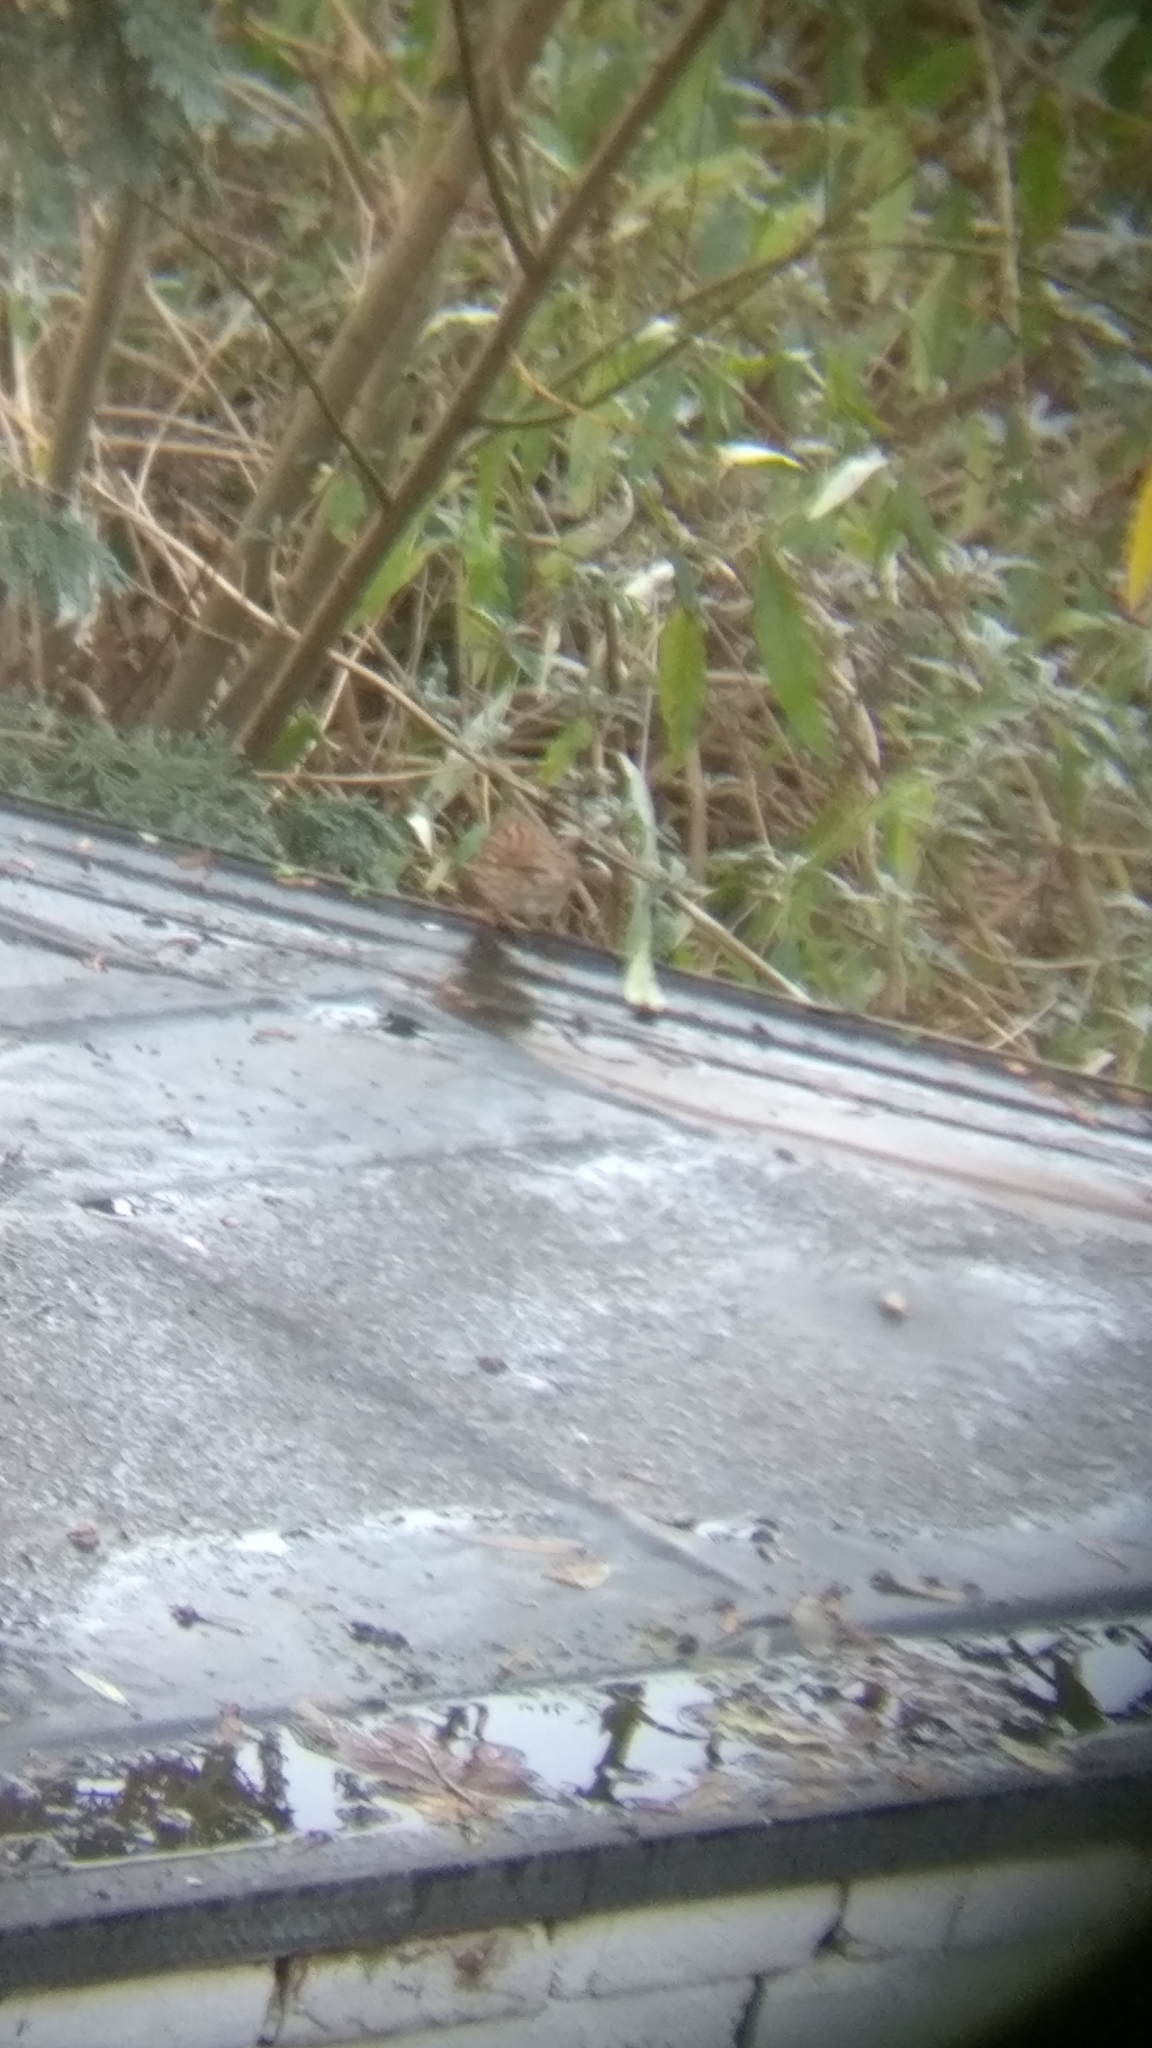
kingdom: Animalia
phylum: Chordata
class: Aves
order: Passeriformes
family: Prunellidae
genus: Prunella
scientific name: Prunella modularis
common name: Dunnock
